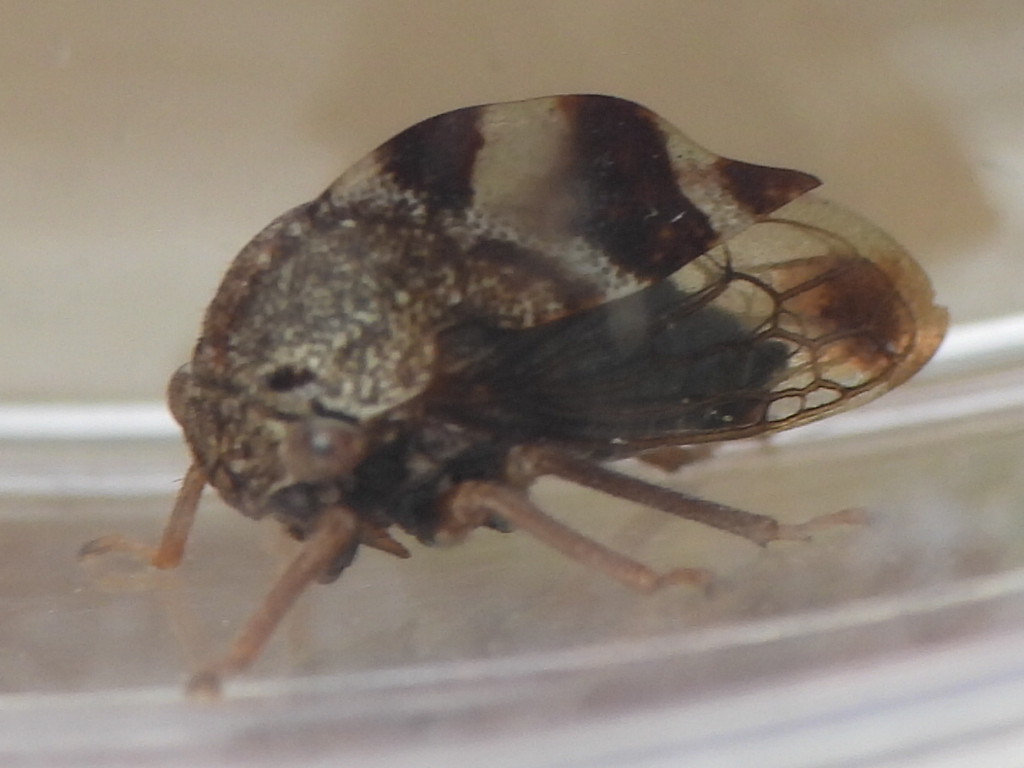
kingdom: Animalia
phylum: Arthropoda
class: Insecta
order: Hemiptera
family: Membracidae
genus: Cyrtolobus
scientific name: Cyrtolobus tuberosa
